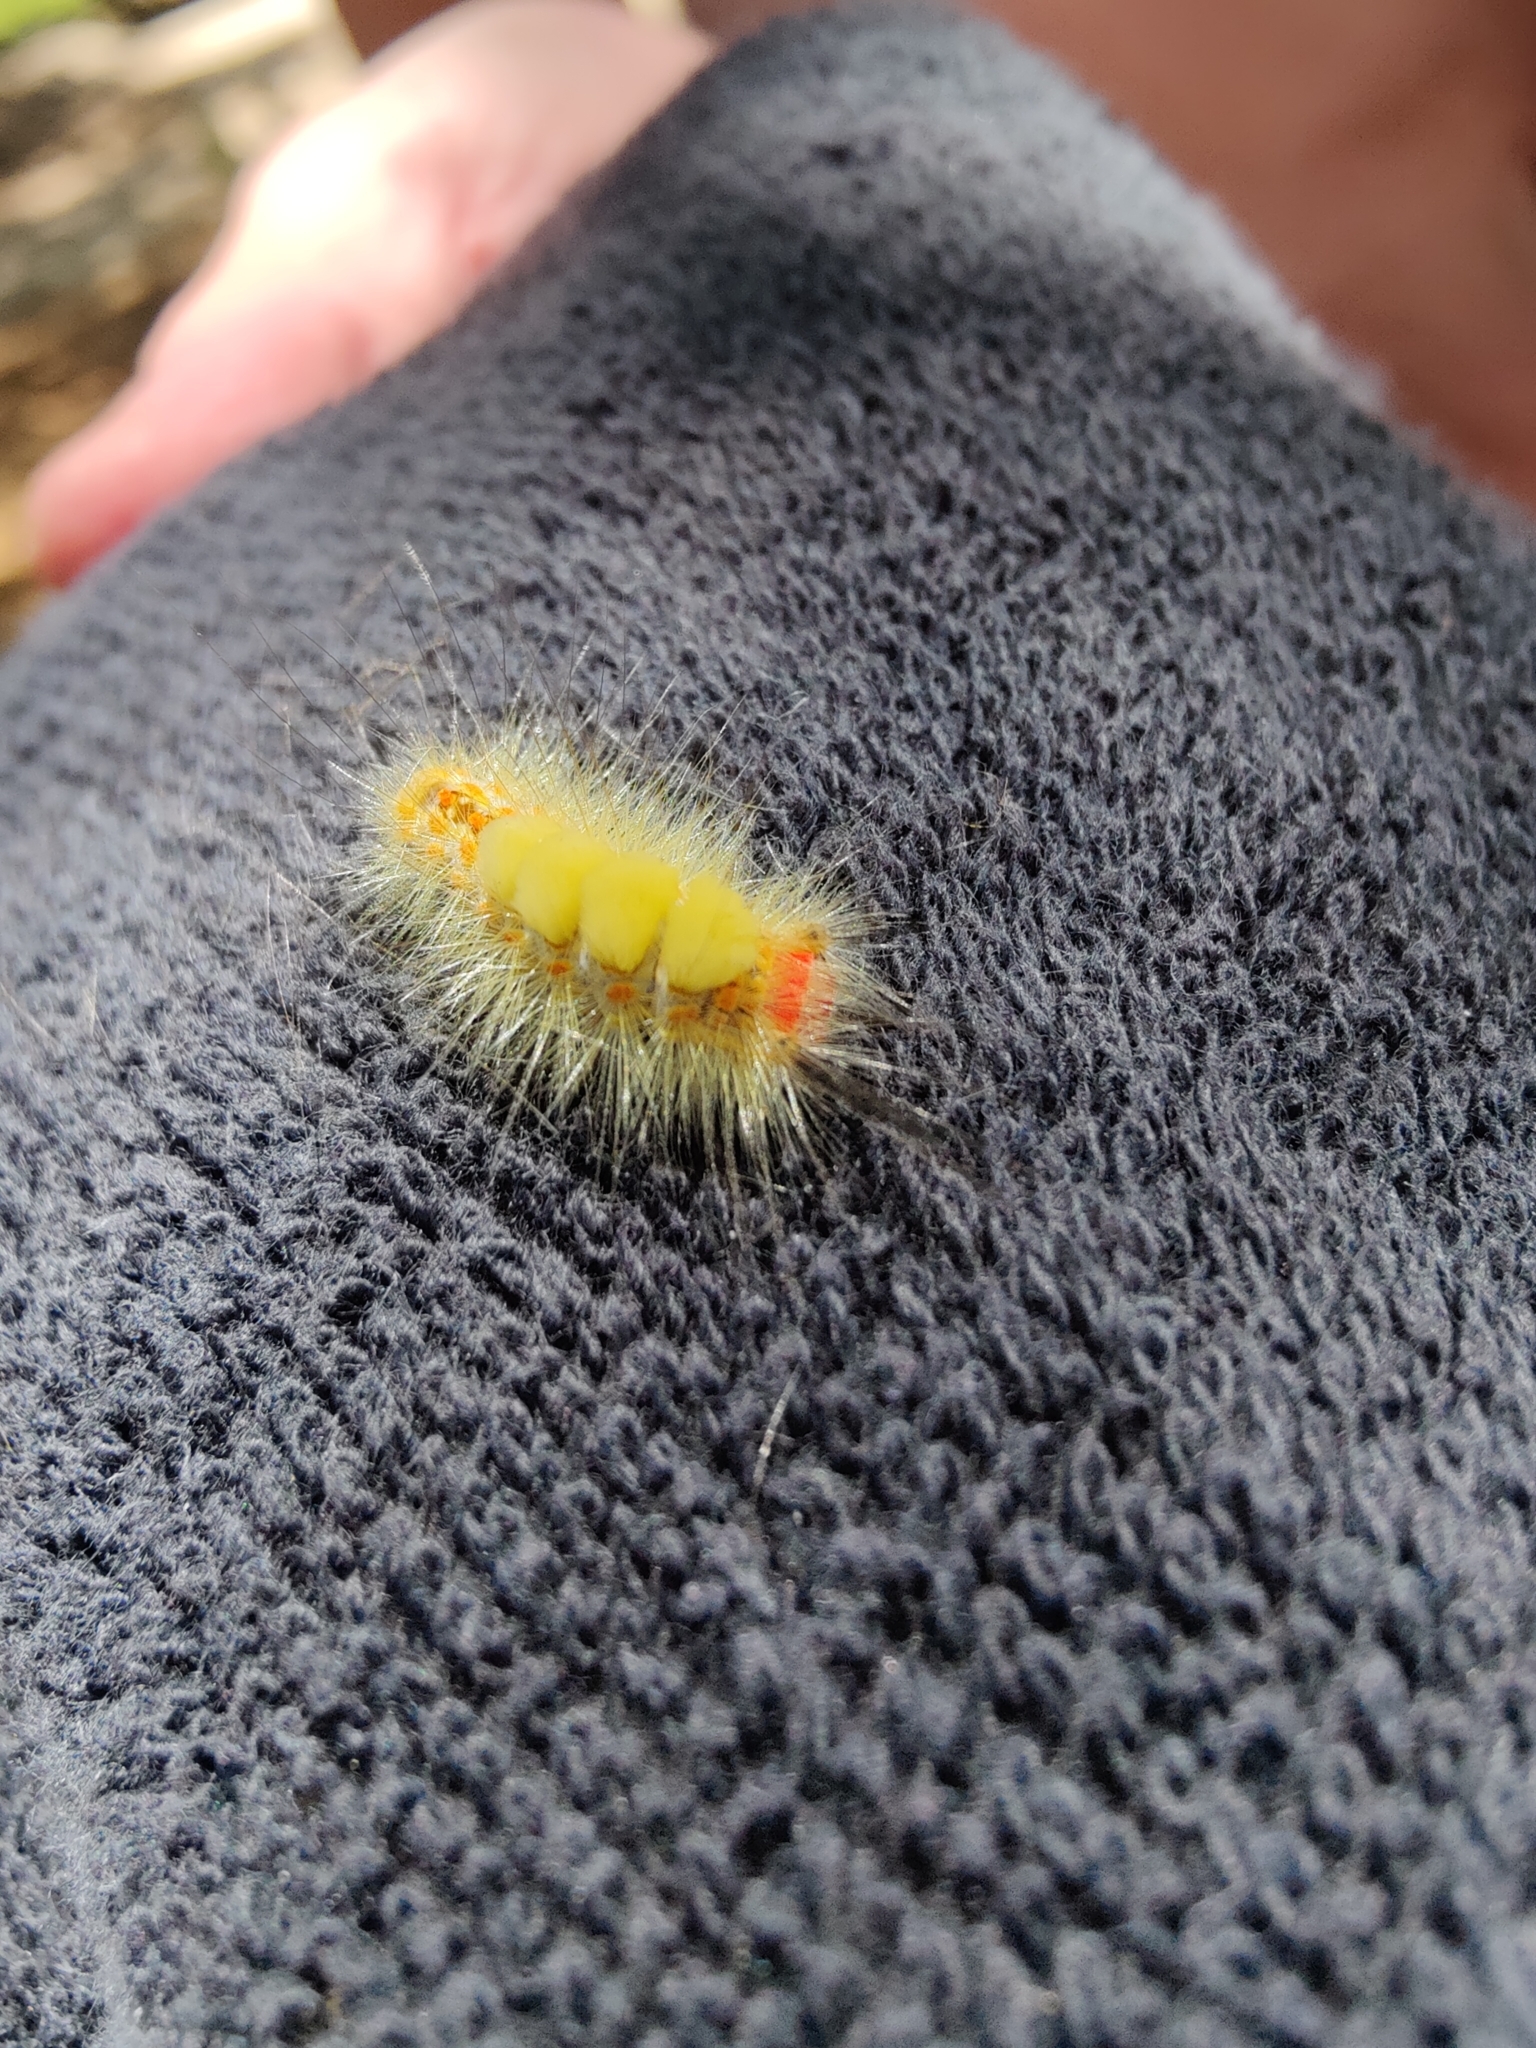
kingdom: Animalia
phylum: Arthropoda
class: Insecta
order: Lepidoptera
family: Erebidae
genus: Orgyia
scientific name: Orgyia detrita
